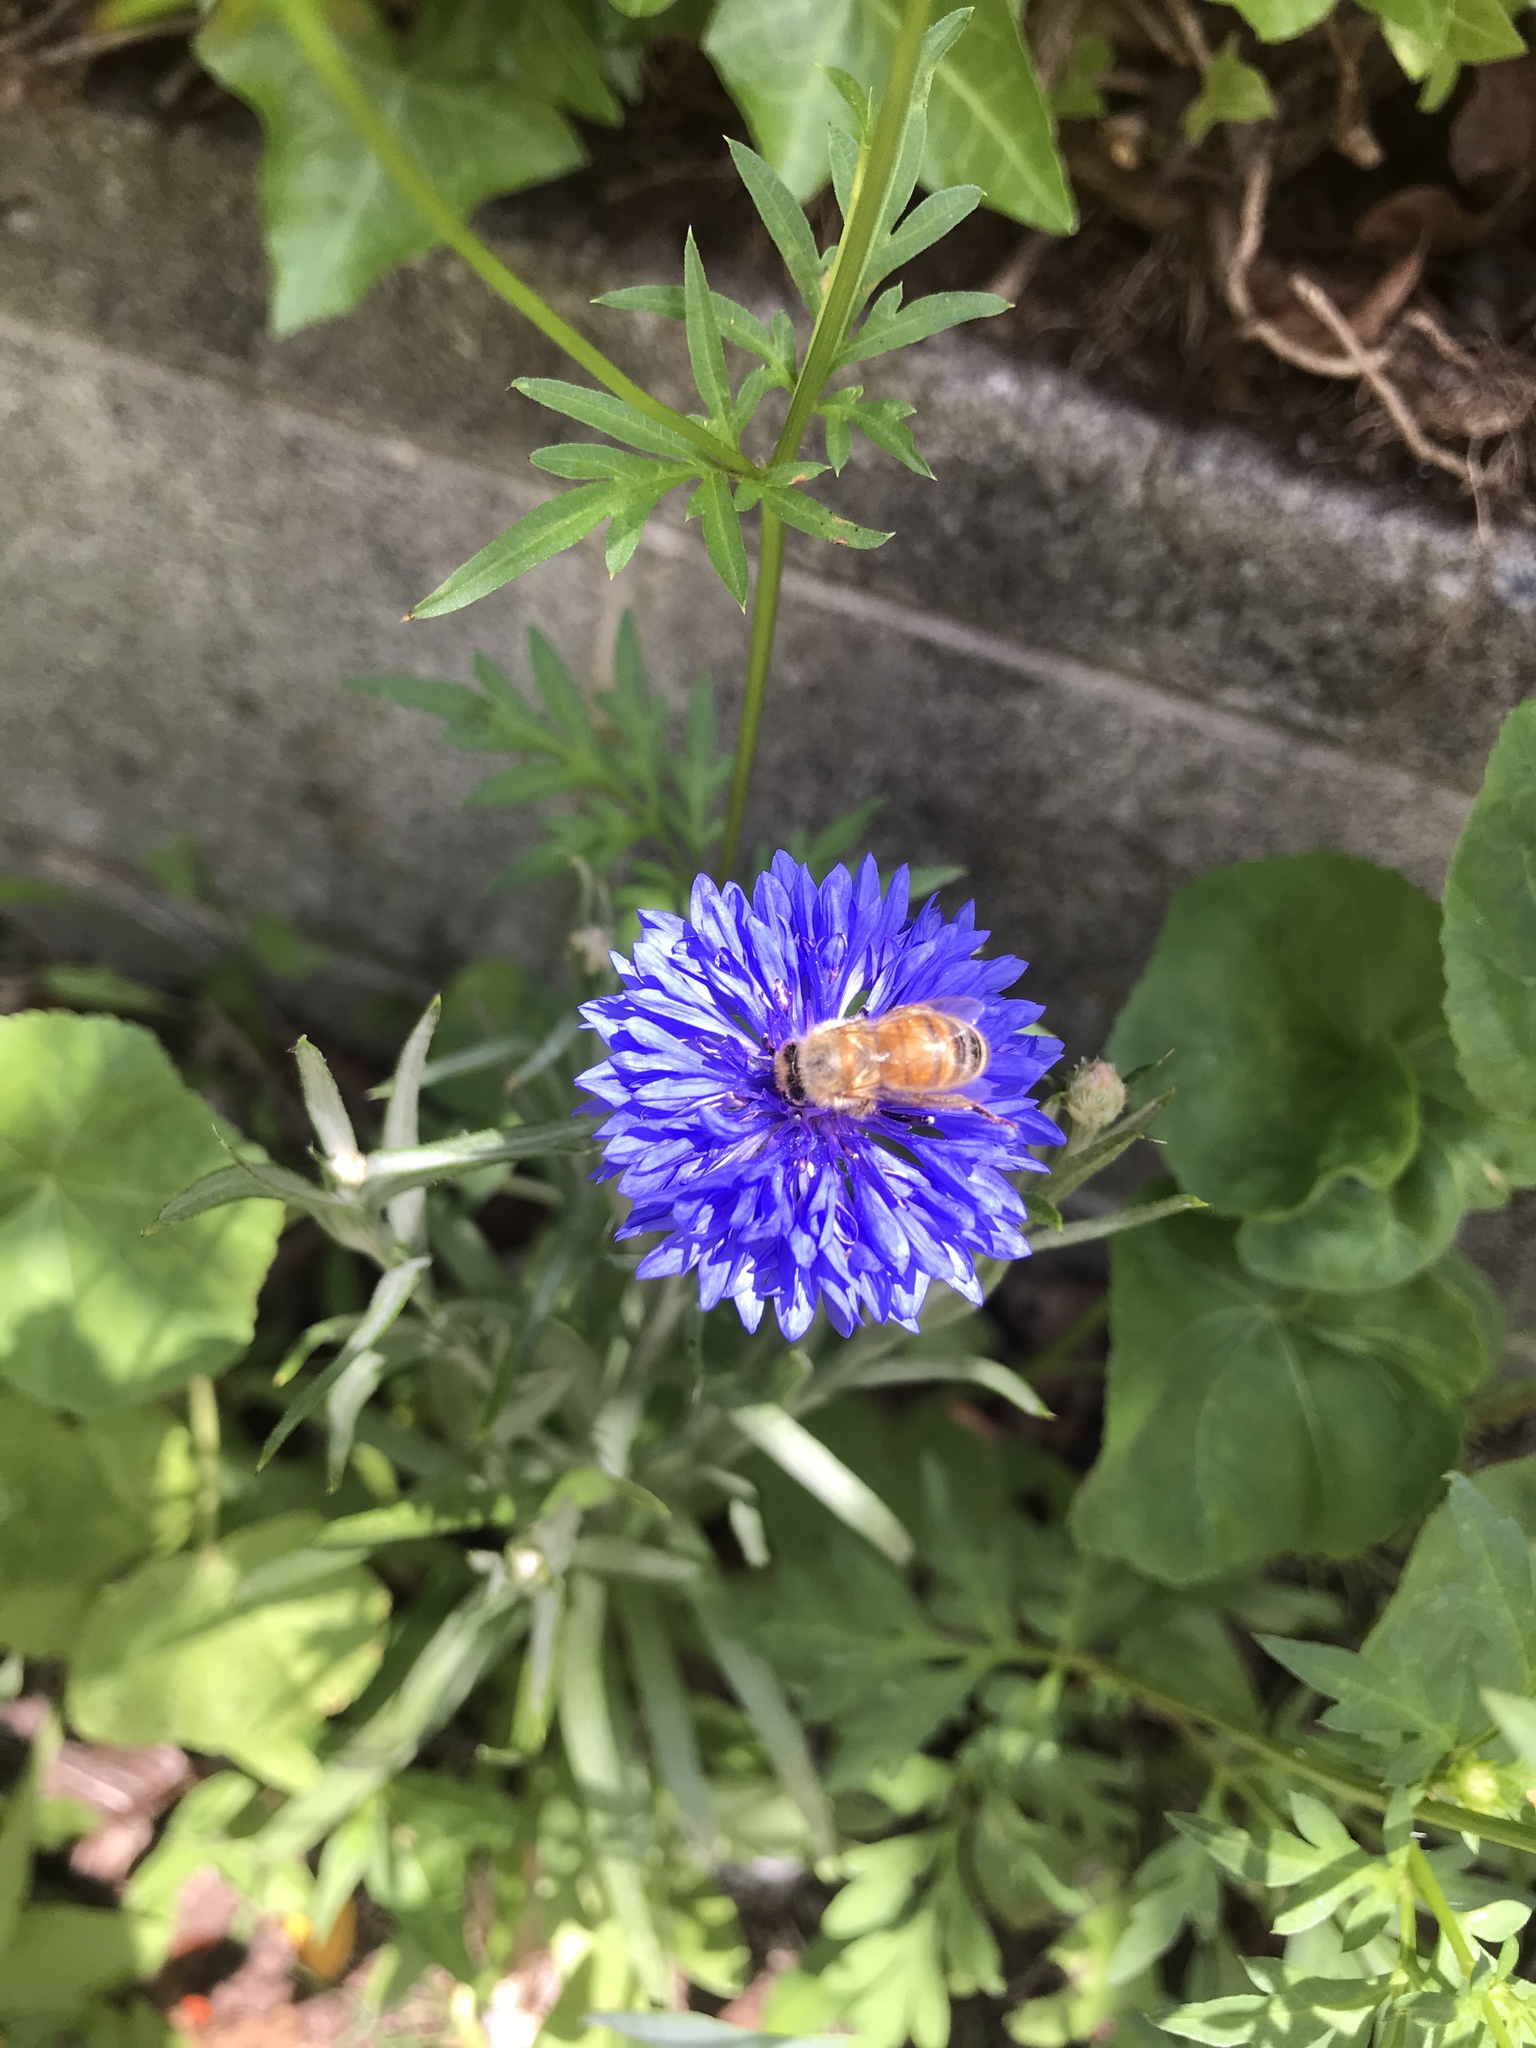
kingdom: Animalia
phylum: Arthropoda
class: Insecta
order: Hymenoptera
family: Apidae
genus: Apis
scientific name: Apis mellifera
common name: Honey bee
